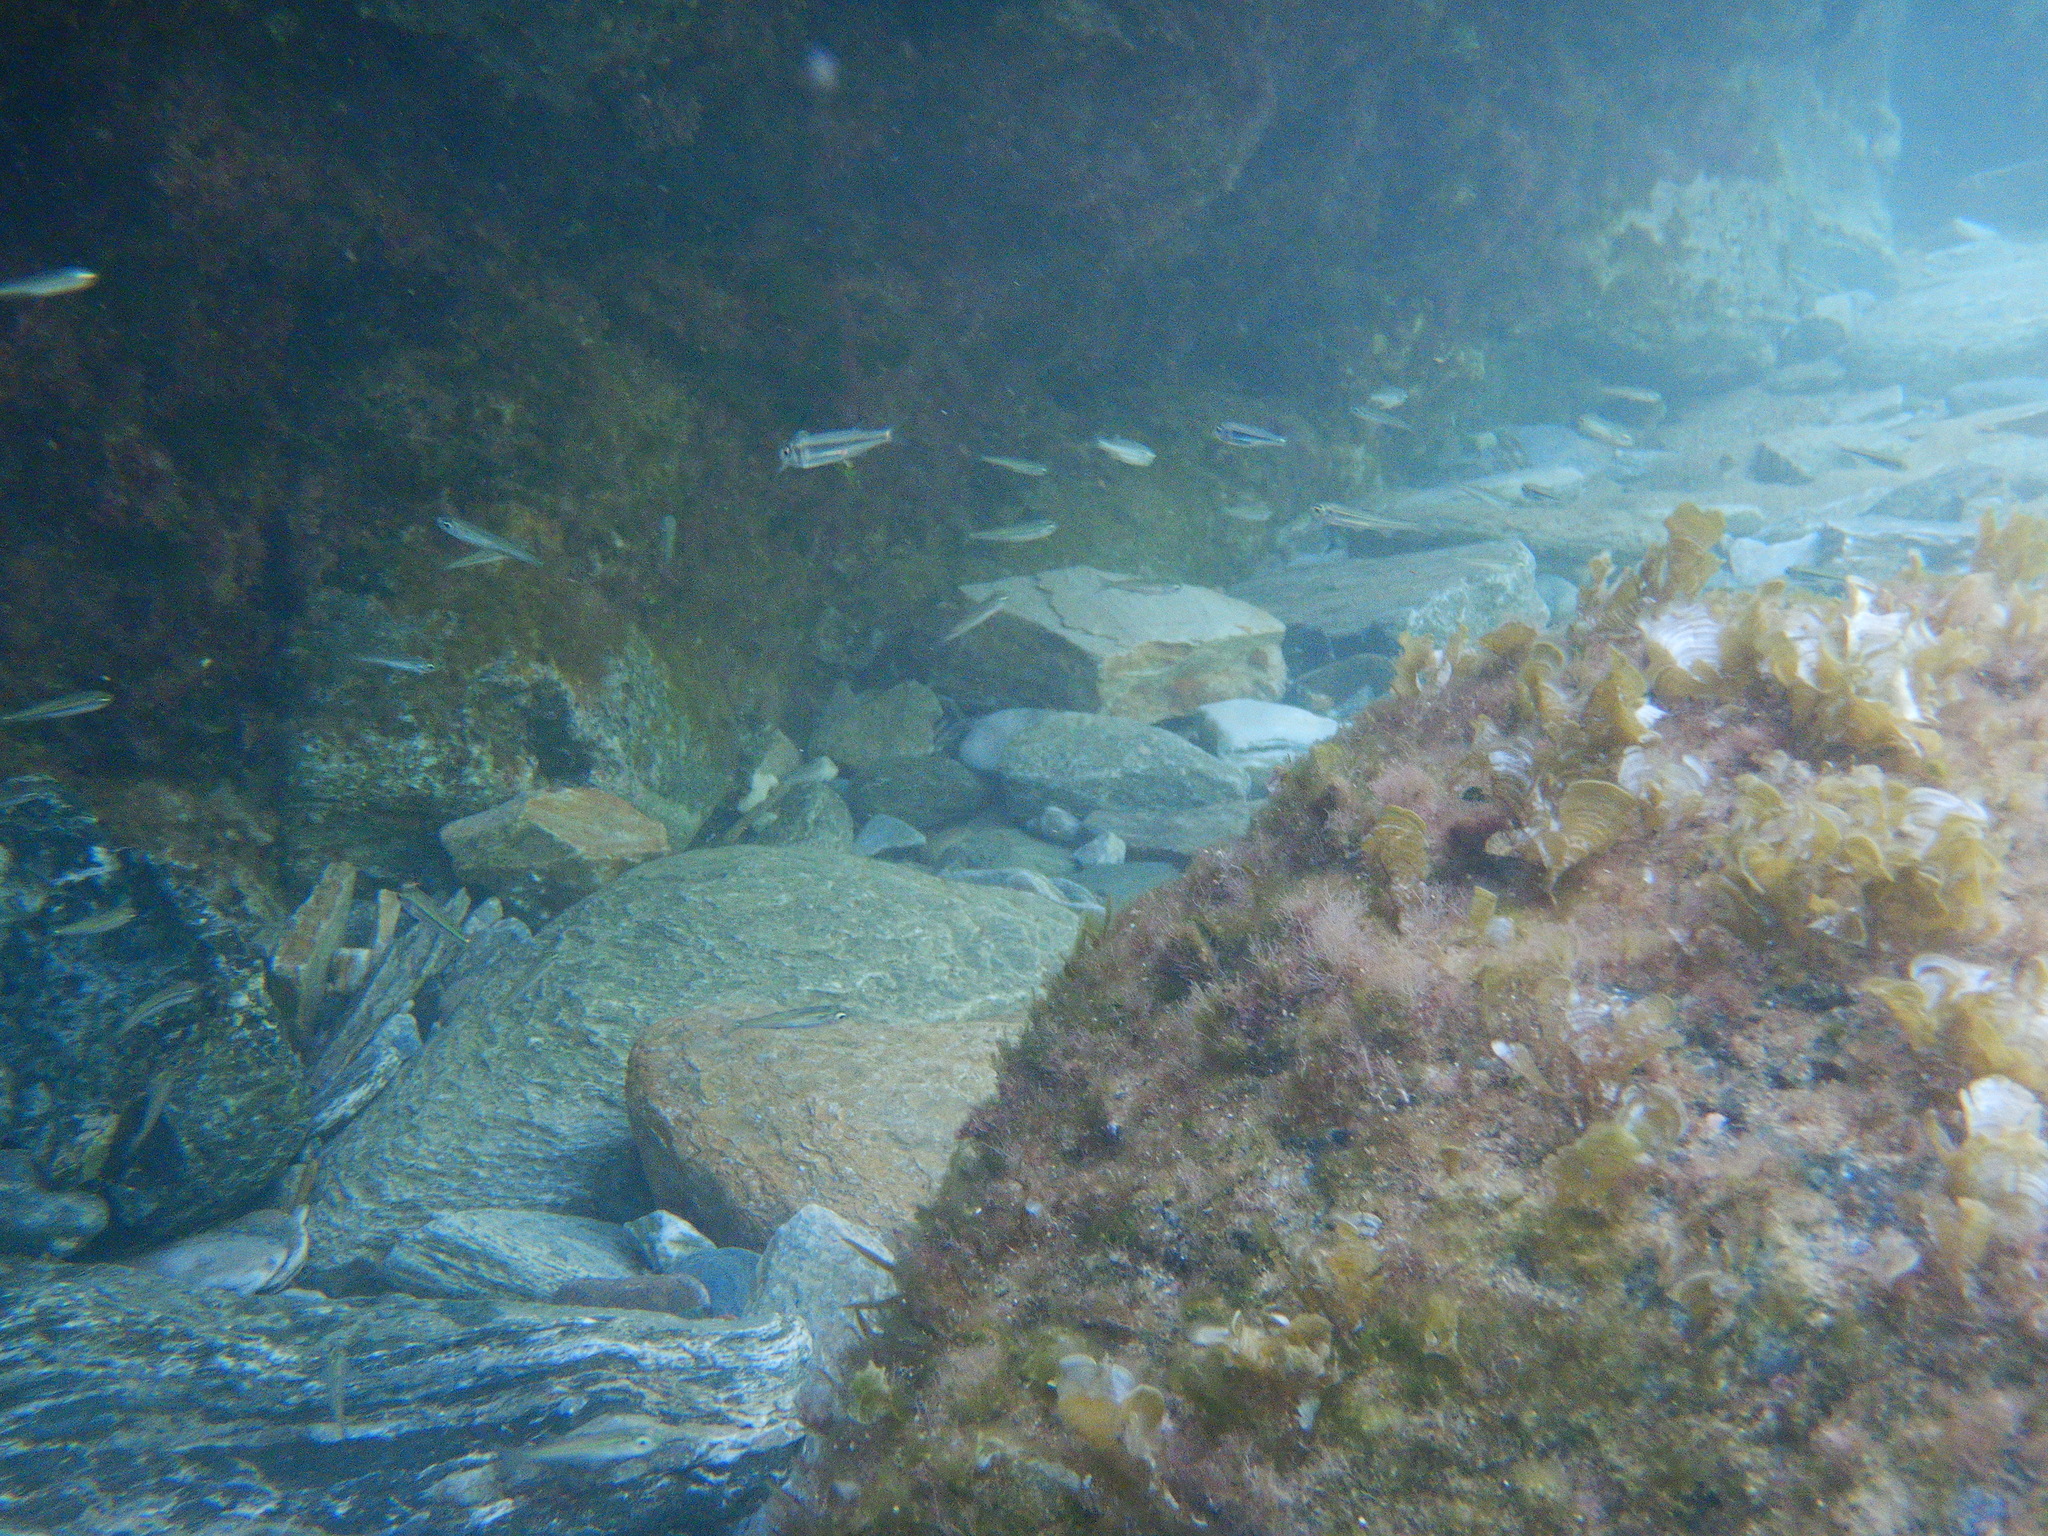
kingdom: Animalia
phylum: Chordata
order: Atheriniformes
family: Atherinidae
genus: Atherina
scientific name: Atherina
